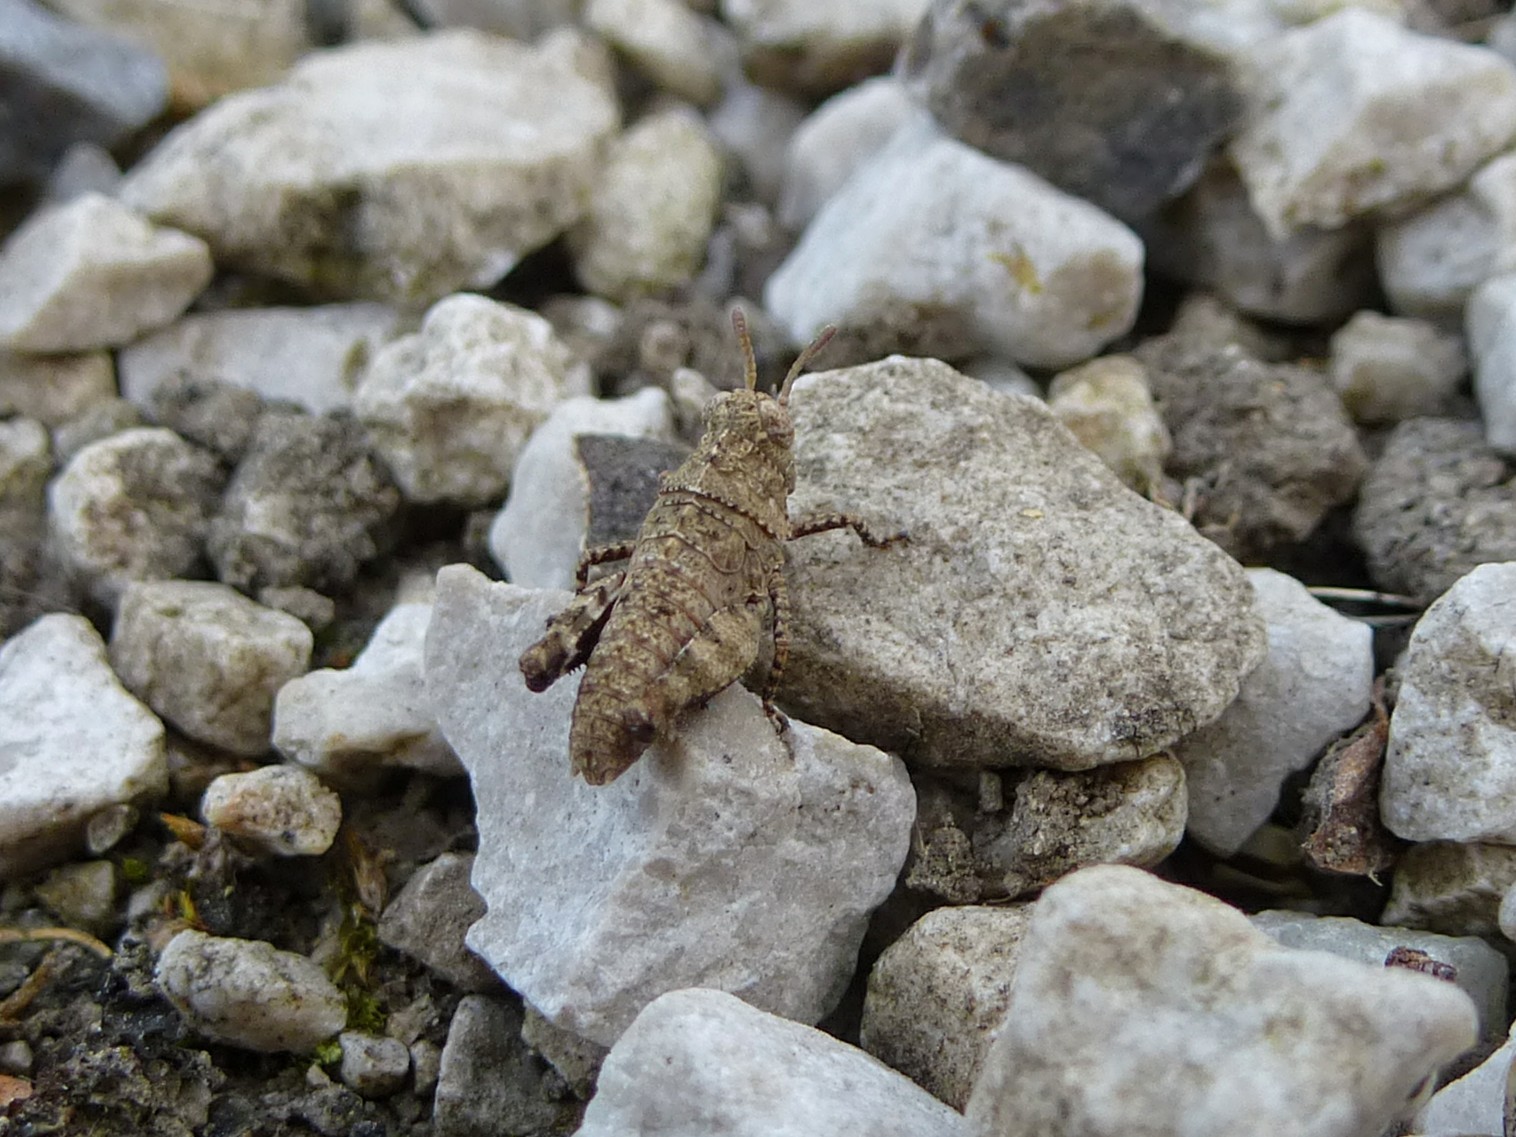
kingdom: Animalia
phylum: Arthropoda
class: Insecta
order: Orthoptera
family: Acrididae
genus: Oedipoda
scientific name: Oedipoda caerulescens
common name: Blue-winged grasshopper
